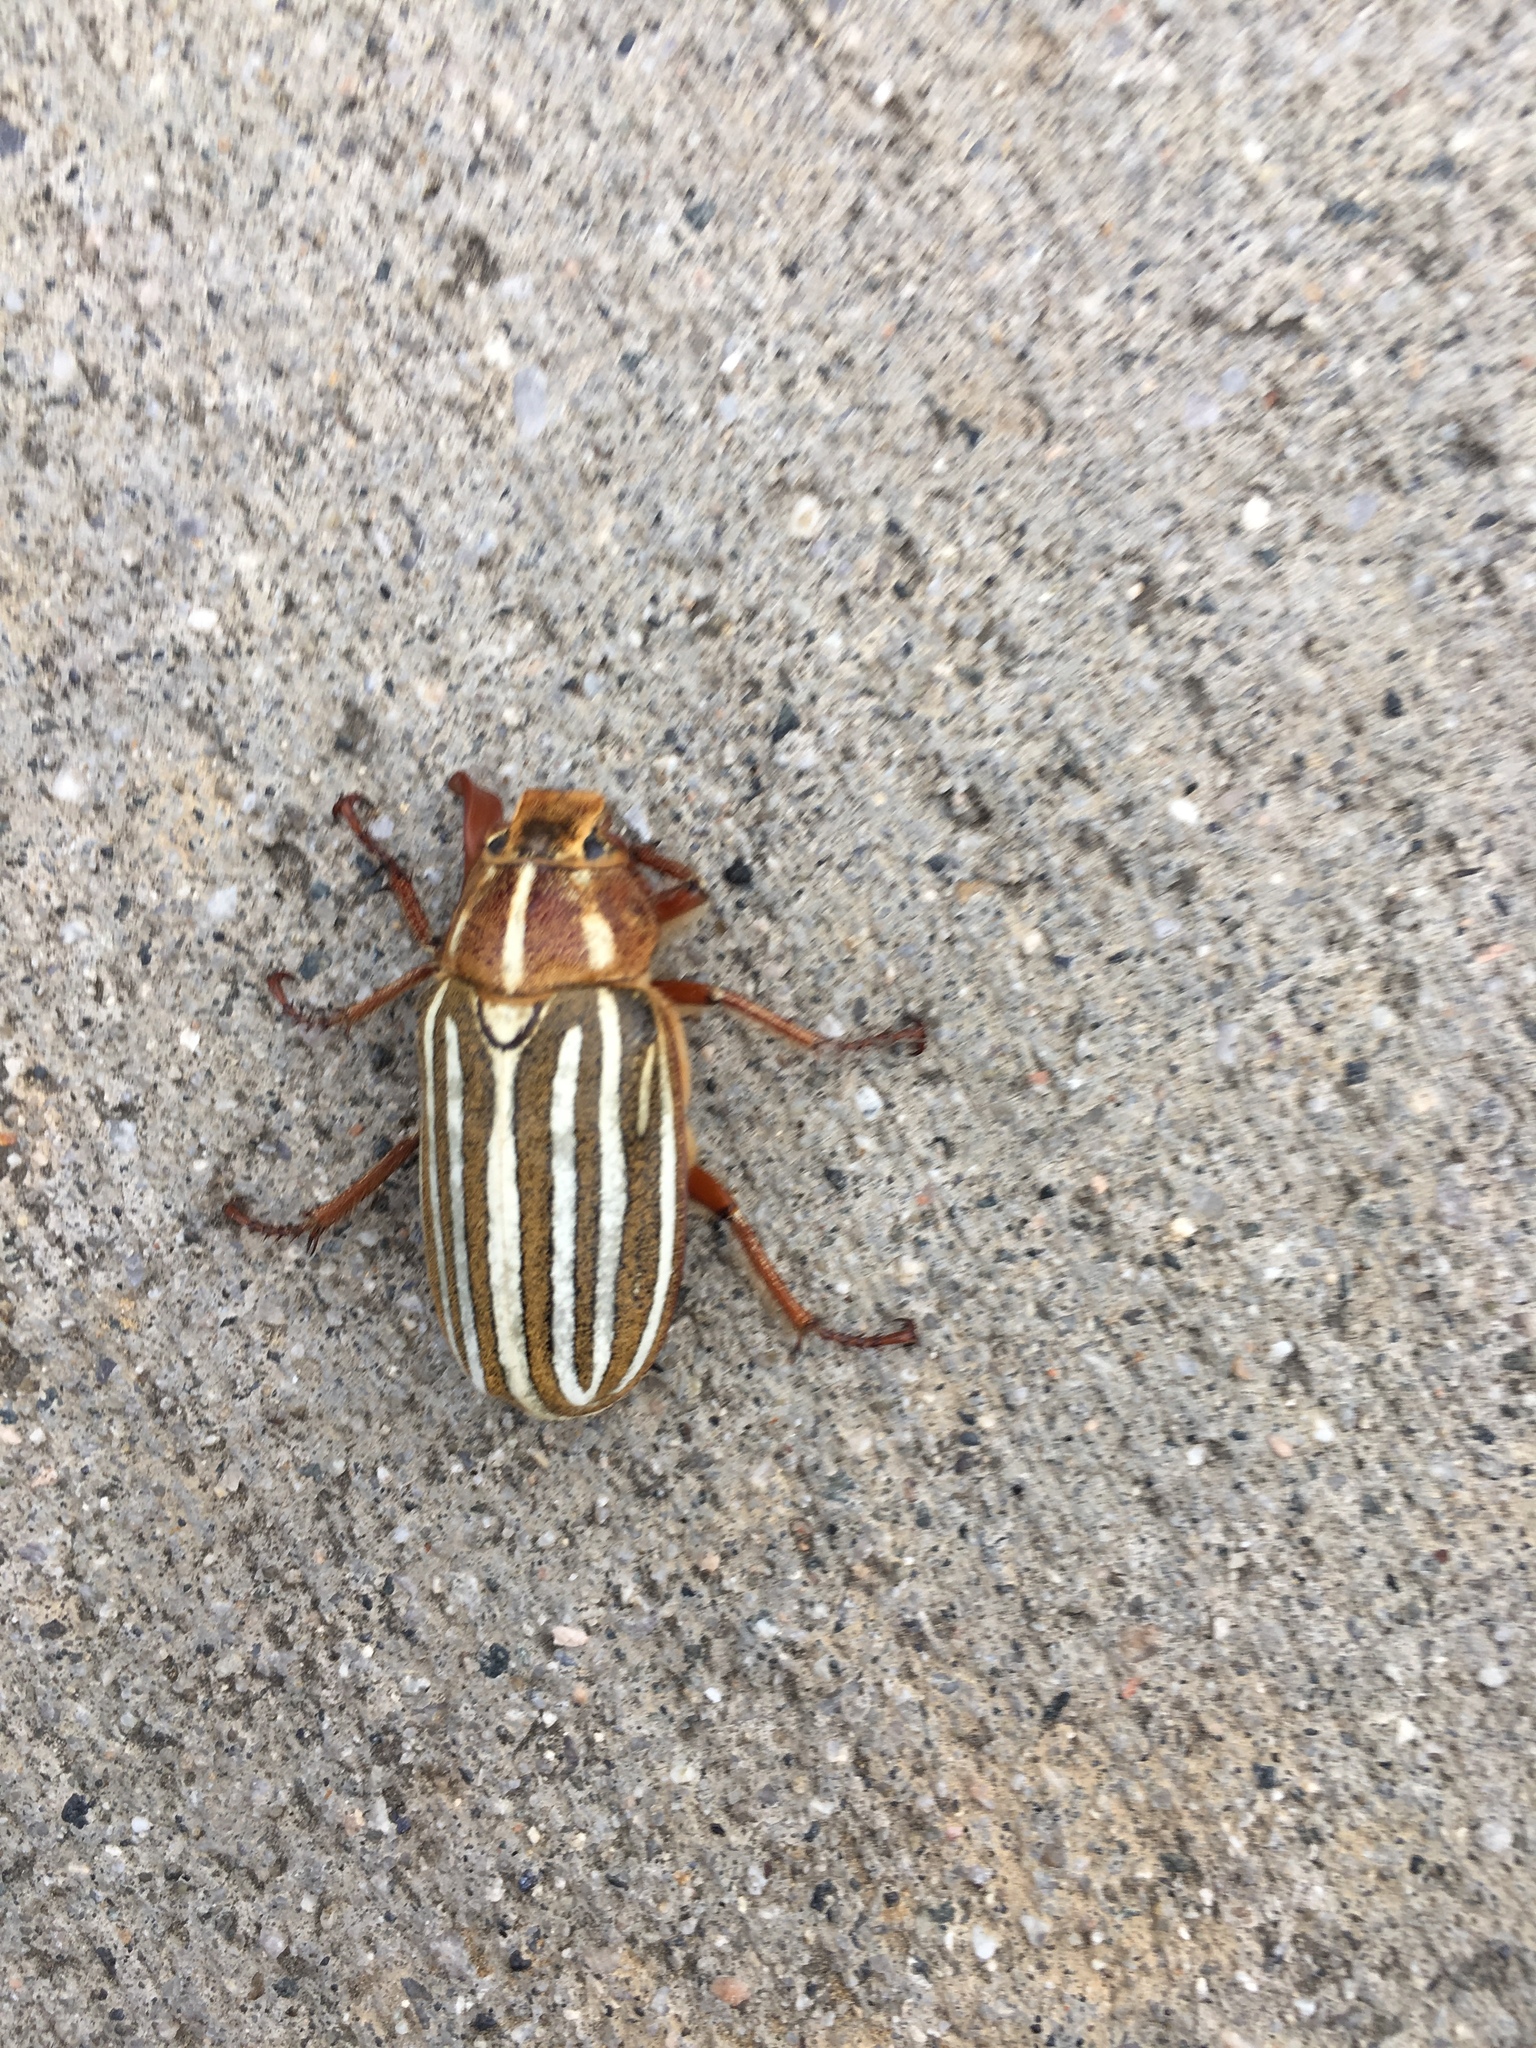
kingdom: Animalia
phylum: Arthropoda
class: Insecta
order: Coleoptera
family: Scarabaeidae
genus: Polyphylla
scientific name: Polyphylla decemlineata
